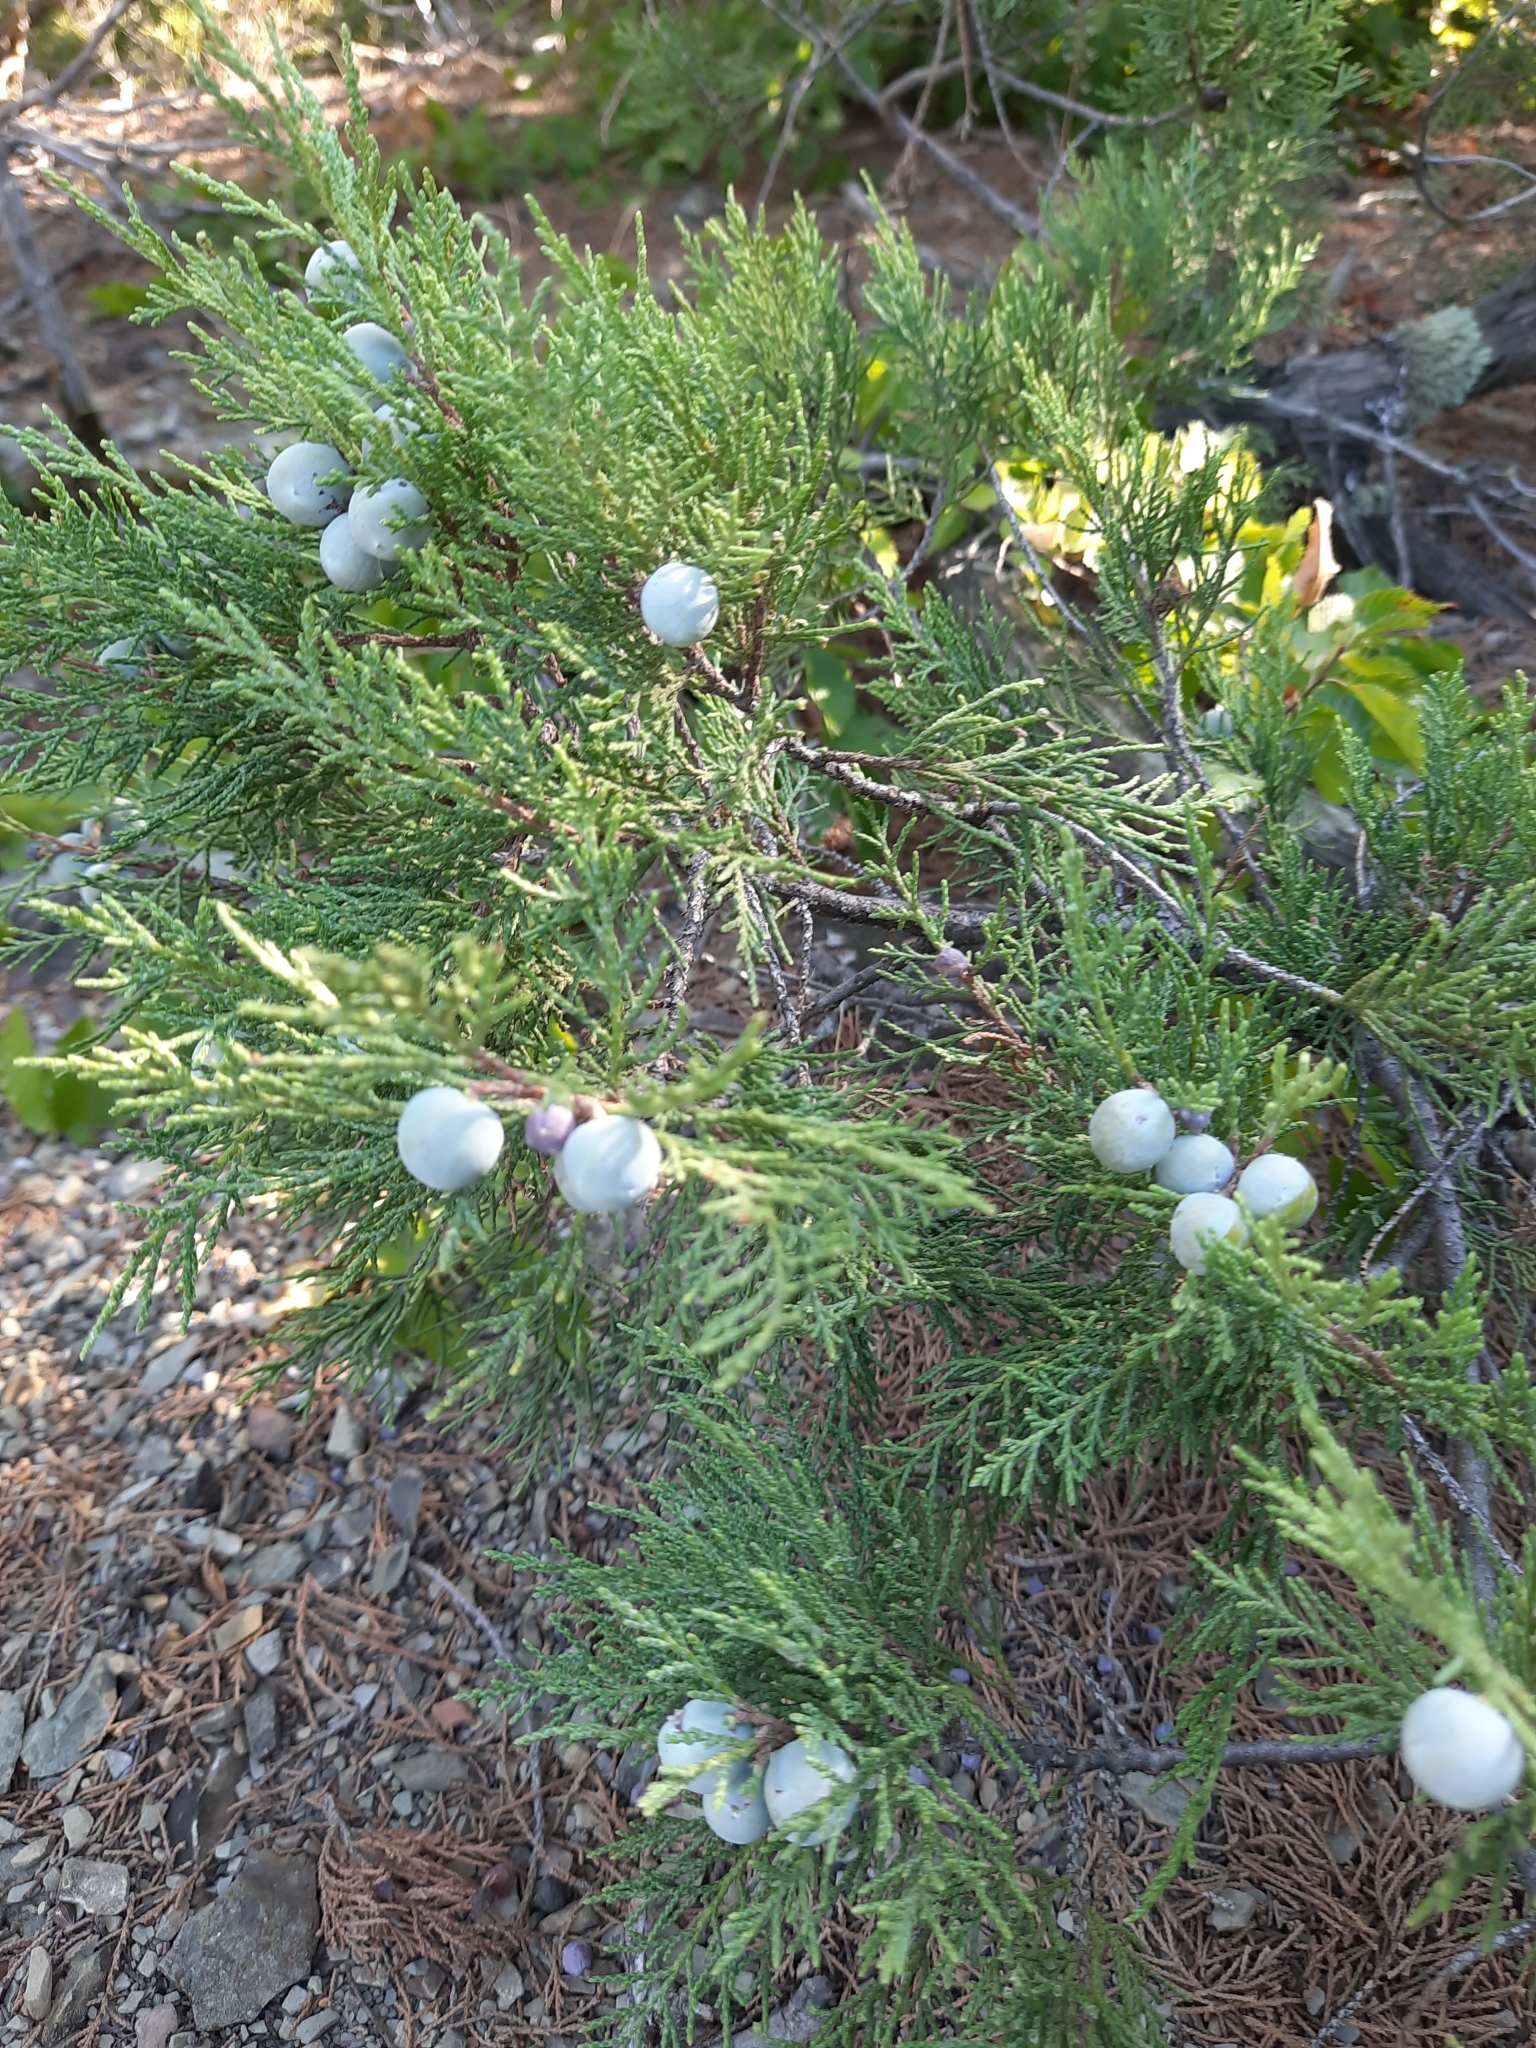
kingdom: Plantae
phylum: Tracheophyta
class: Pinopsida
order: Pinales
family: Cupressaceae
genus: Juniperus
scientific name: Juniperus excelsa
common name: Crimean juniper
